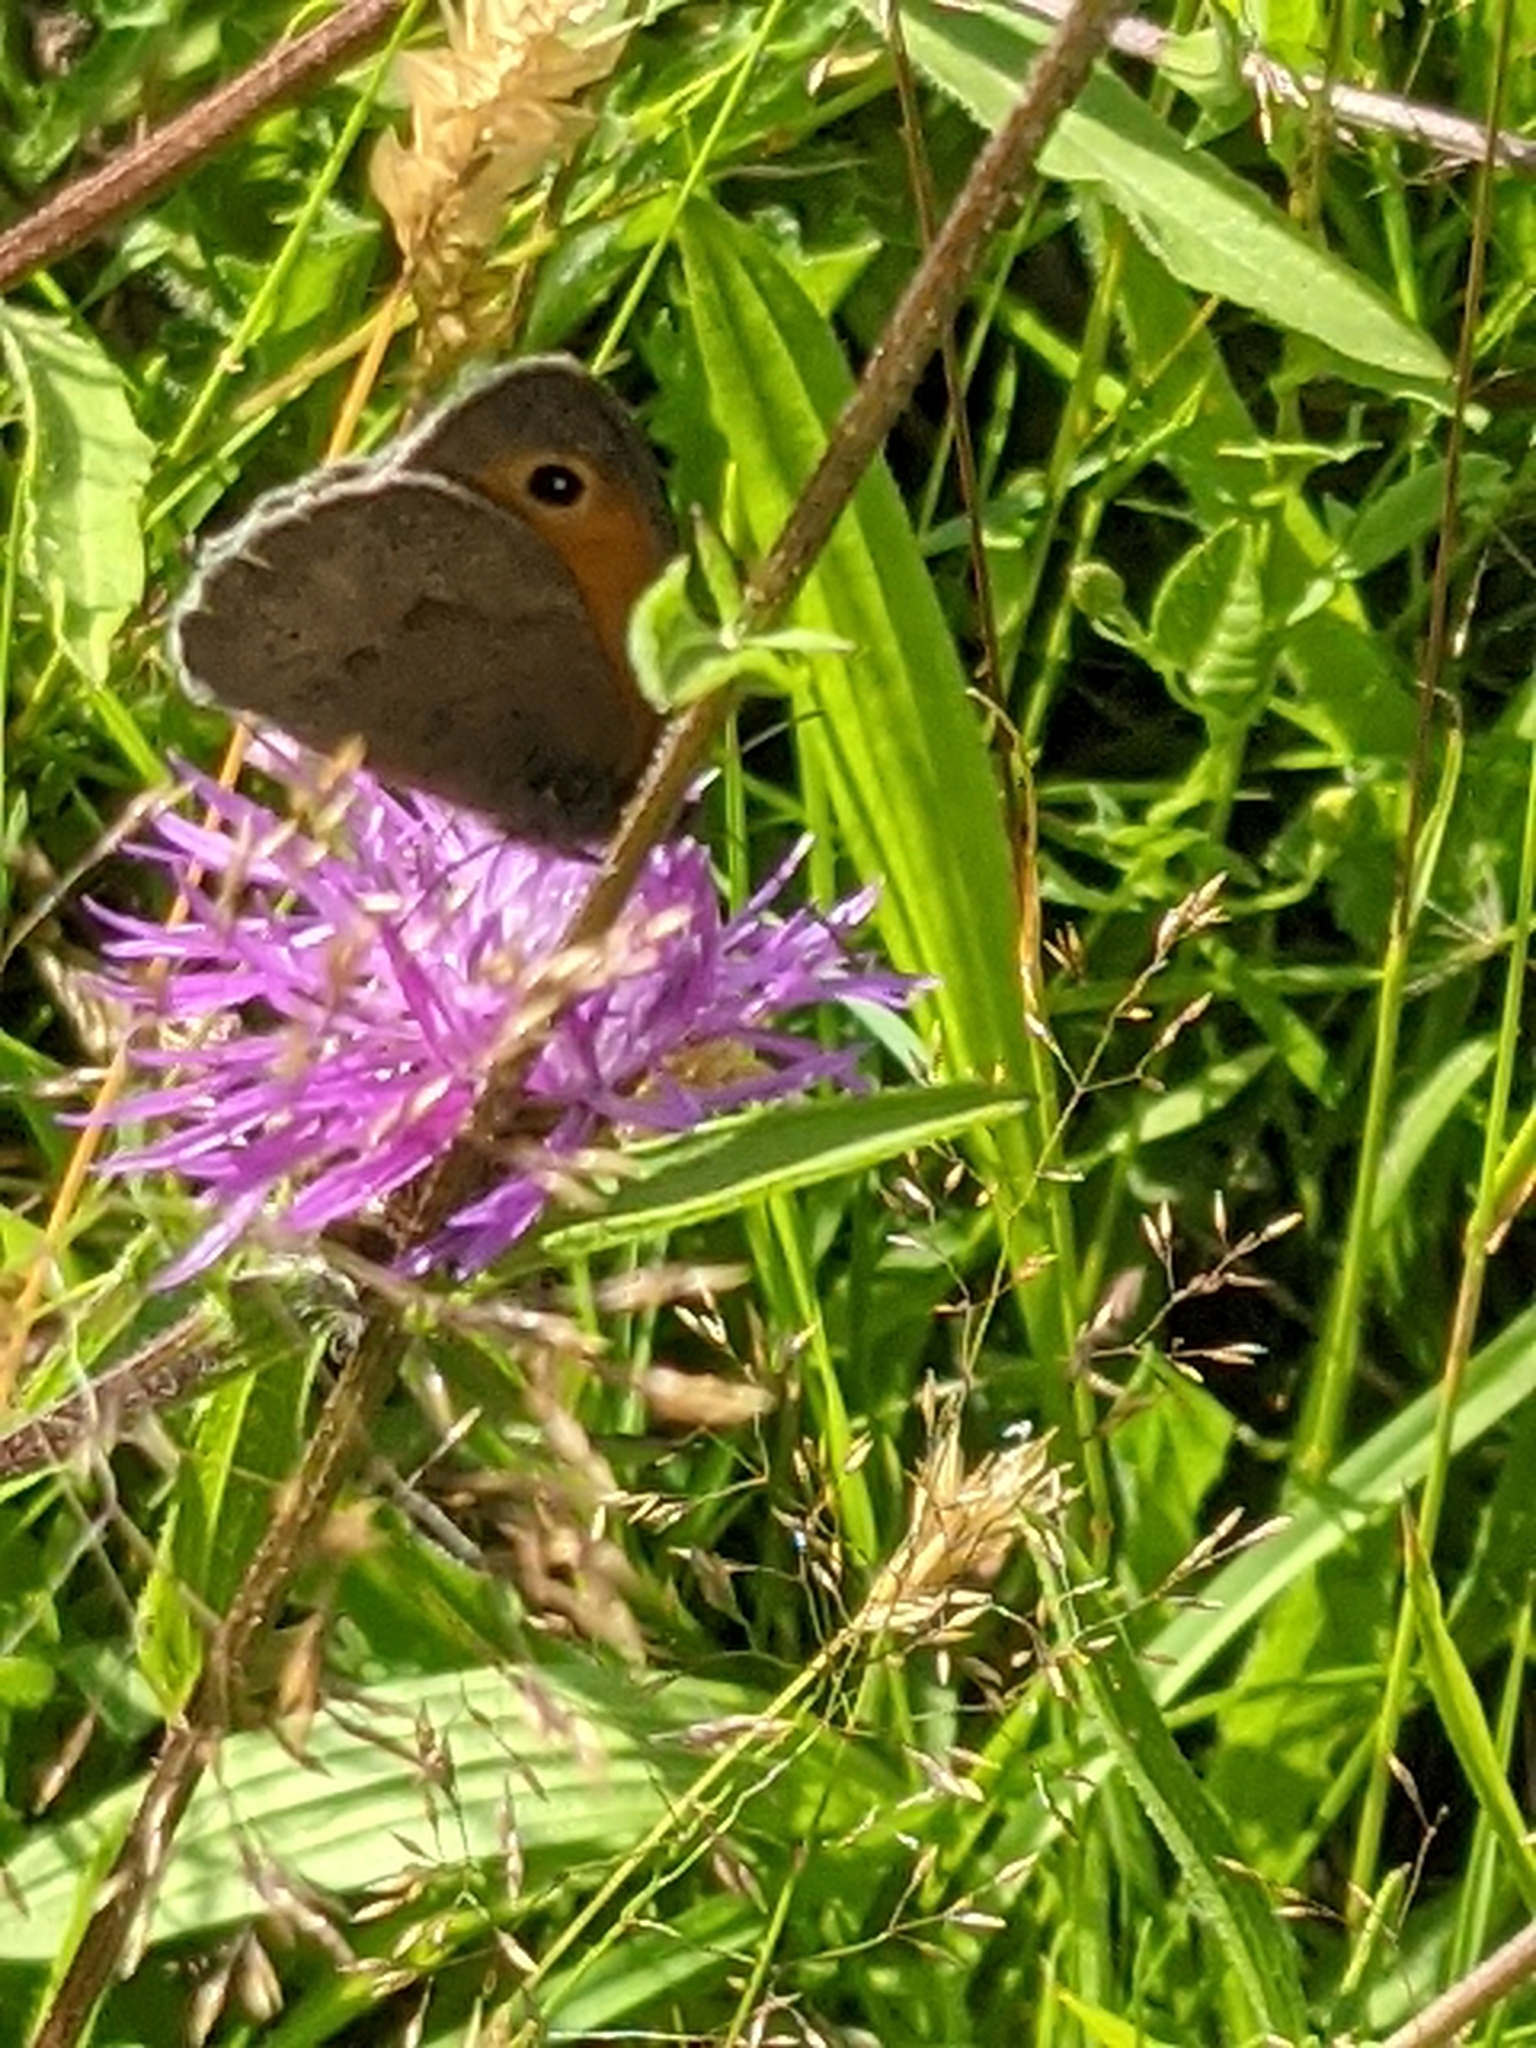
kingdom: Animalia
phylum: Arthropoda
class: Insecta
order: Lepidoptera
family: Nymphalidae
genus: Maniola
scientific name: Maniola jurtina
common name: Meadow brown
